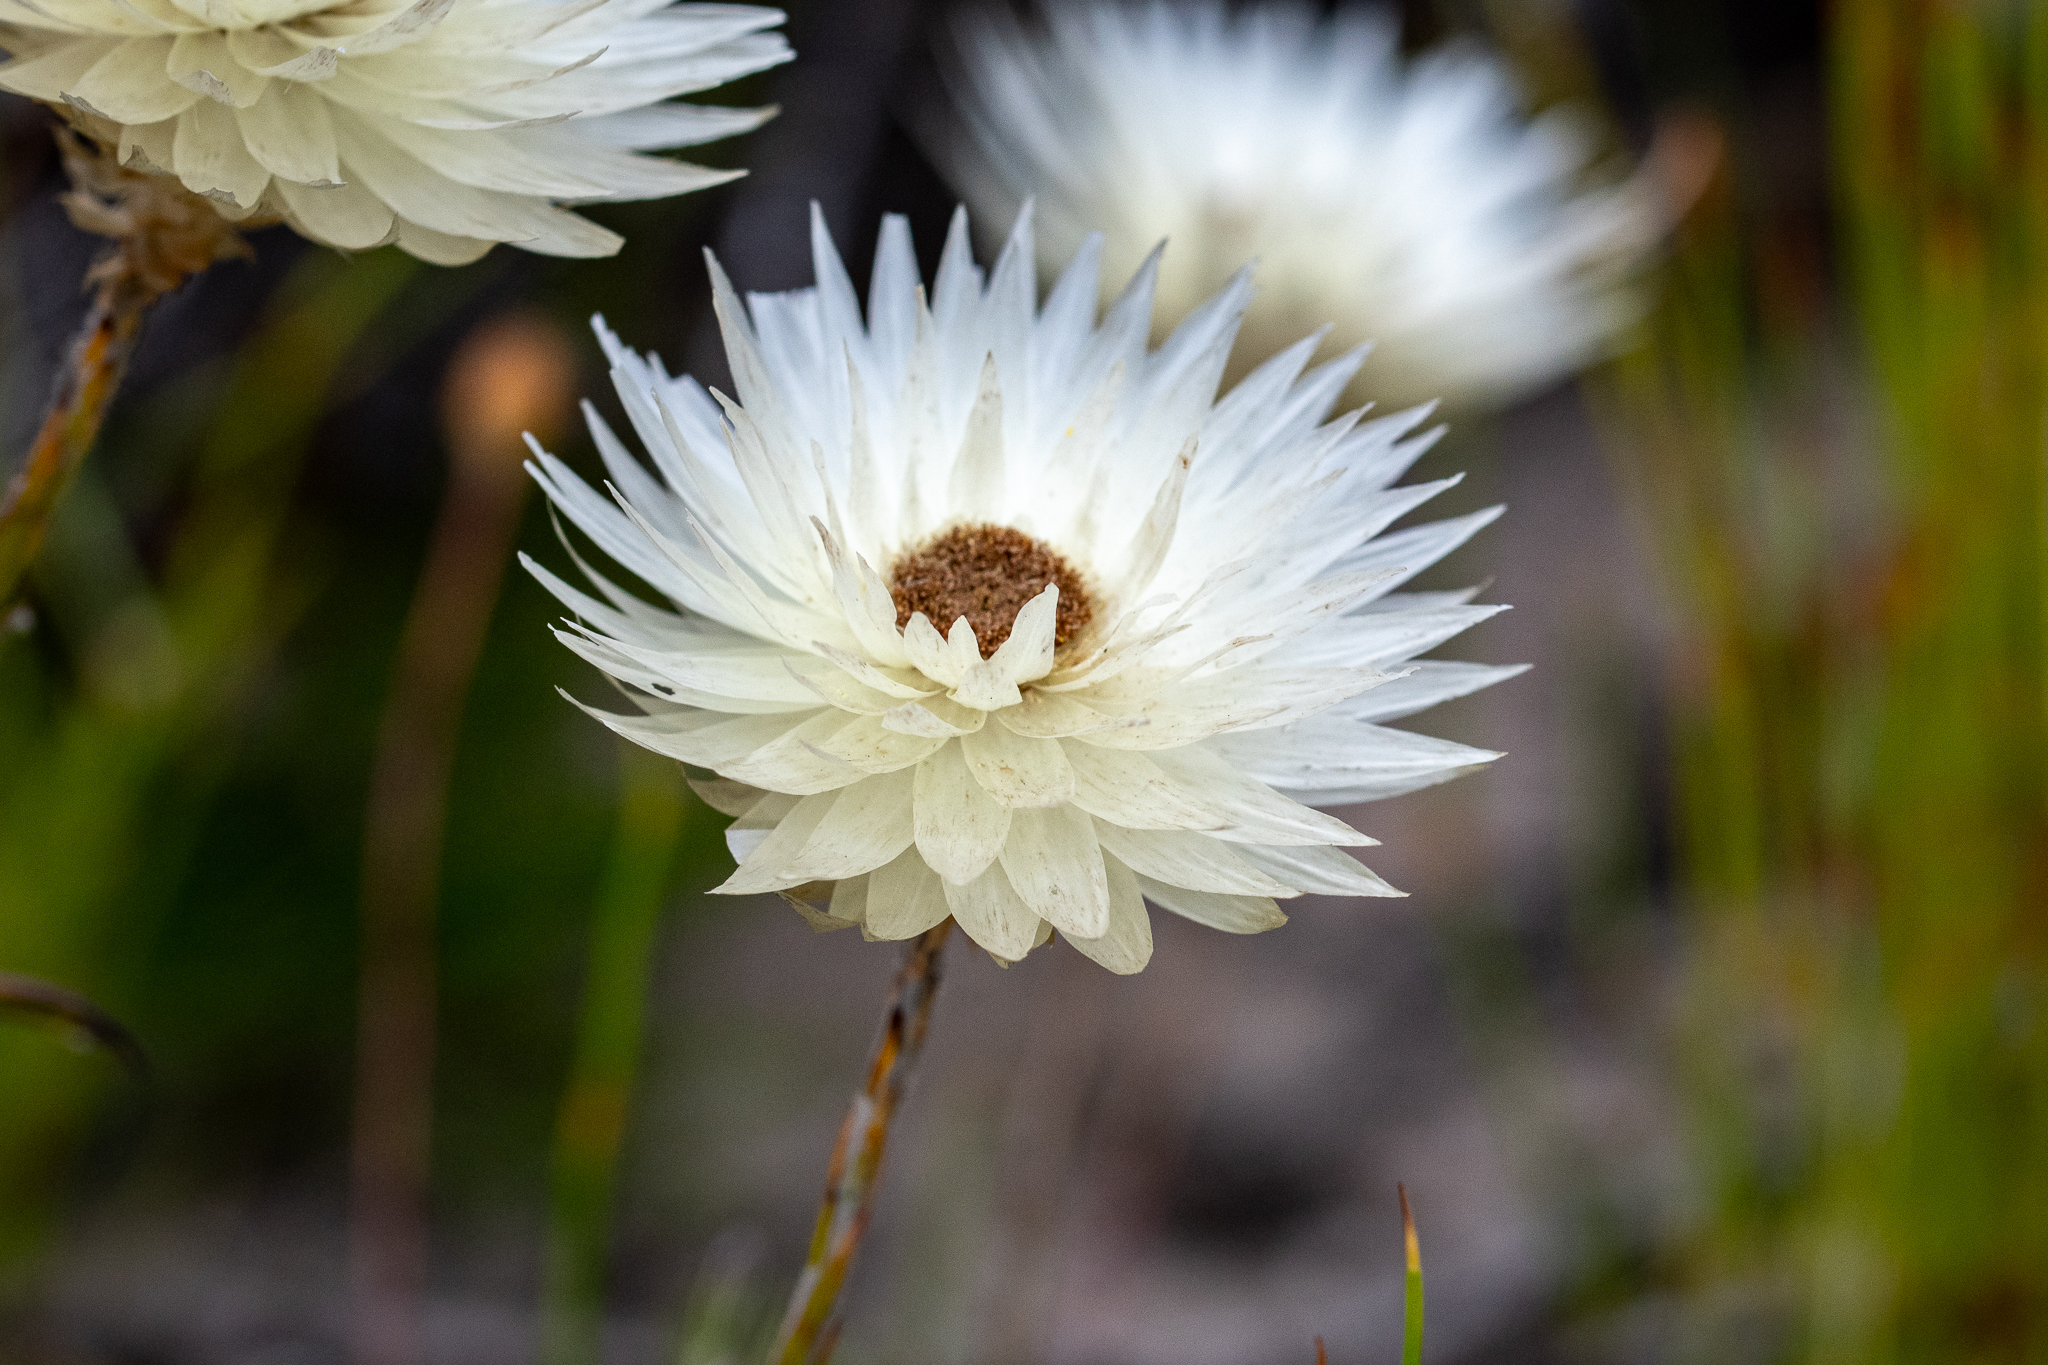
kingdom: Plantae
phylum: Tracheophyta
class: Magnoliopsida
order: Asterales
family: Asteraceae
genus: Edmondia
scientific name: Edmondia sesamoides
